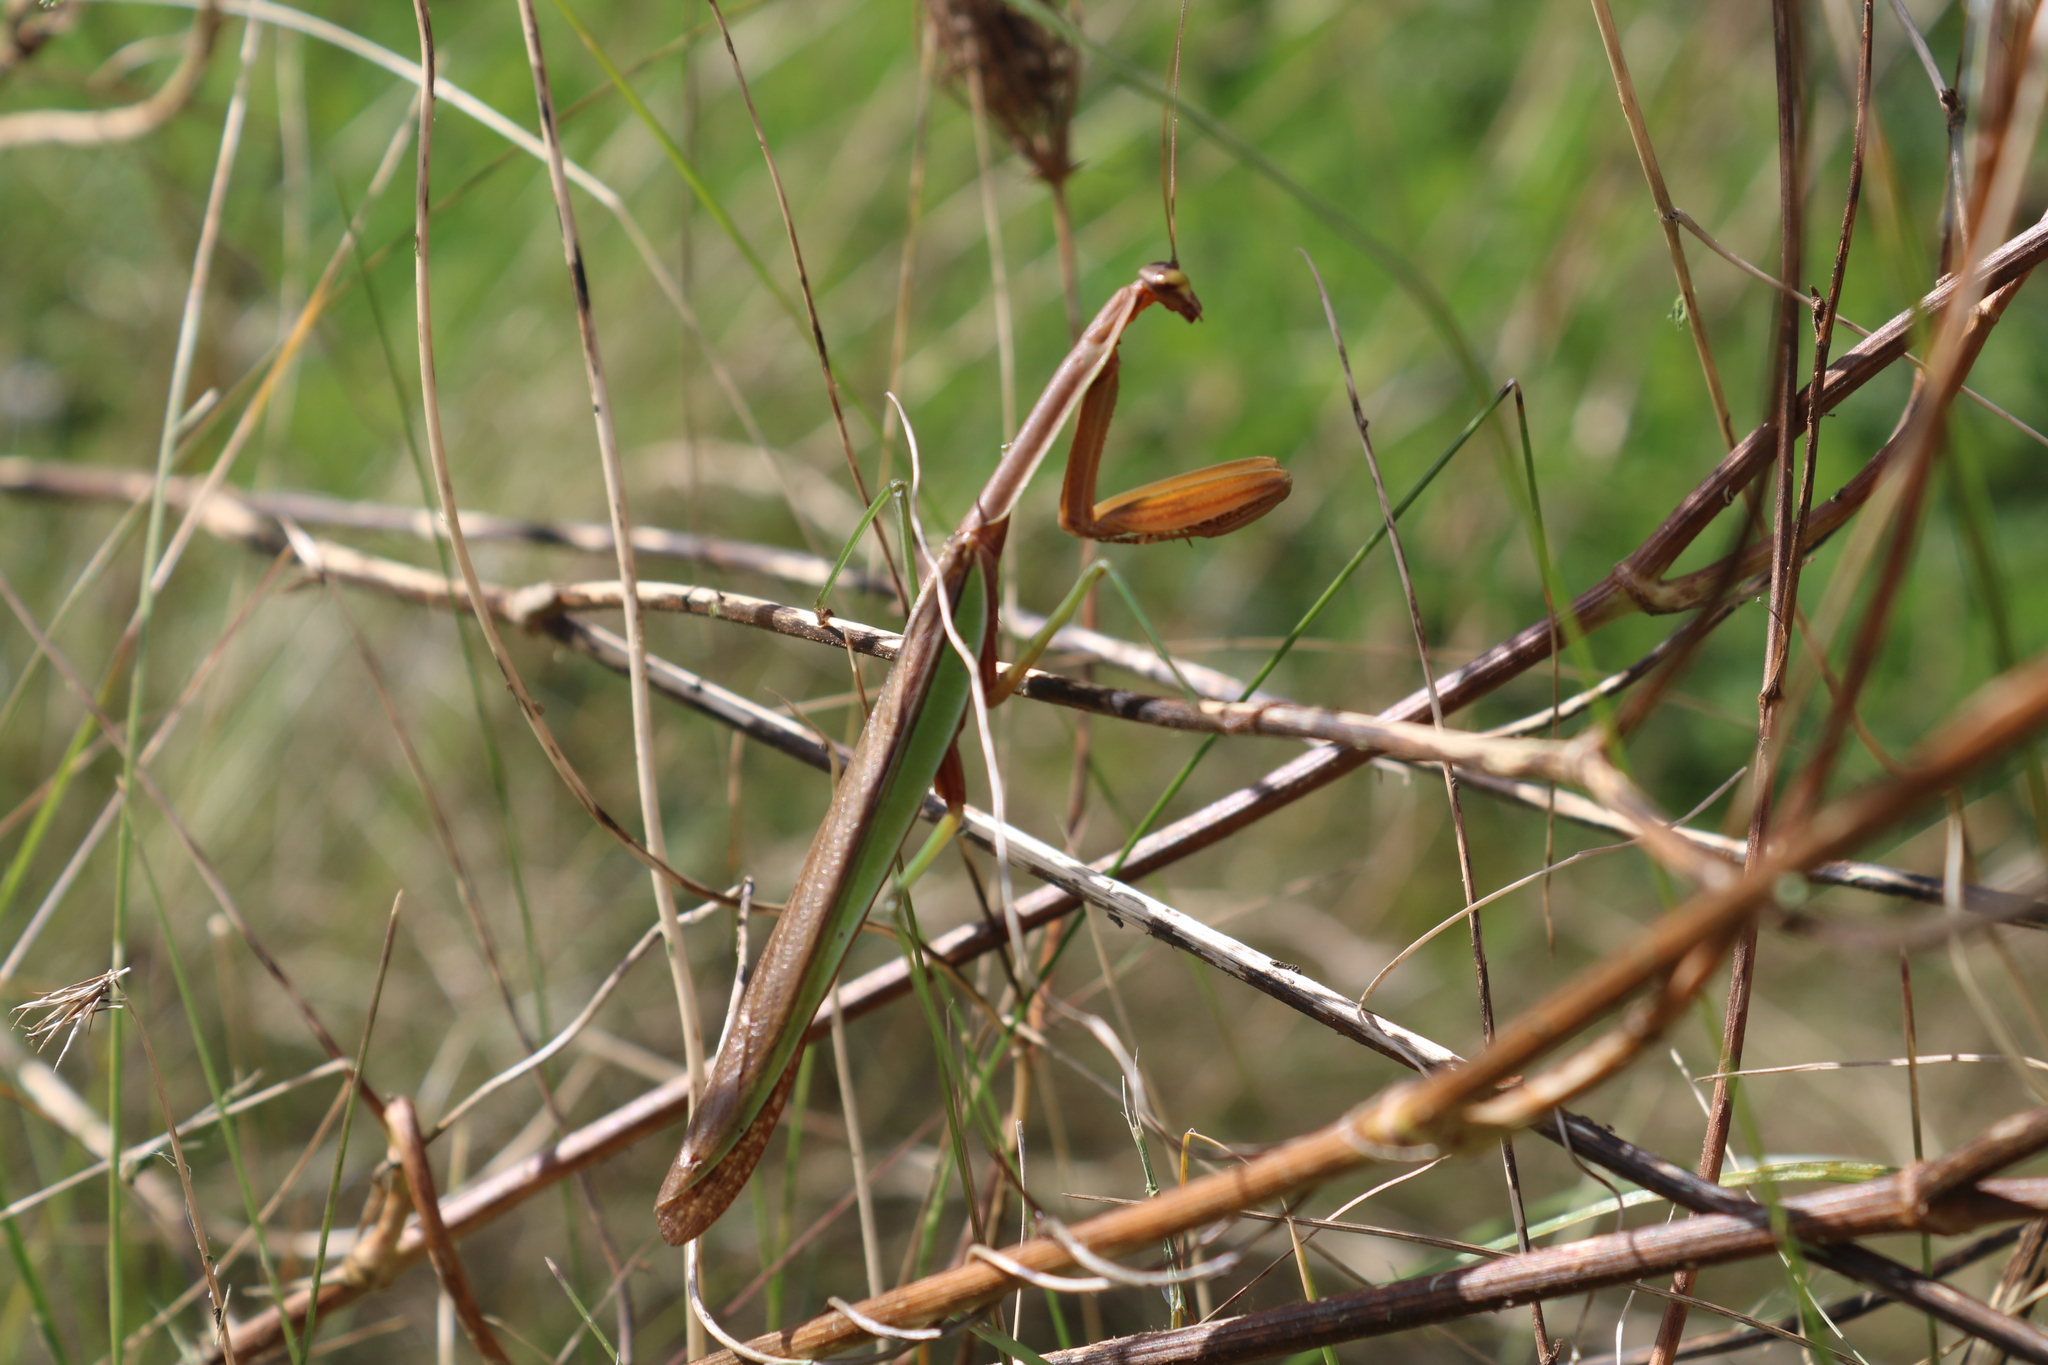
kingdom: Animalia
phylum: Arthropoda
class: Insecta
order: Mantodea
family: Mantidae
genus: Tenodera
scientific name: Tenodera sinensis
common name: Chinese mantis
